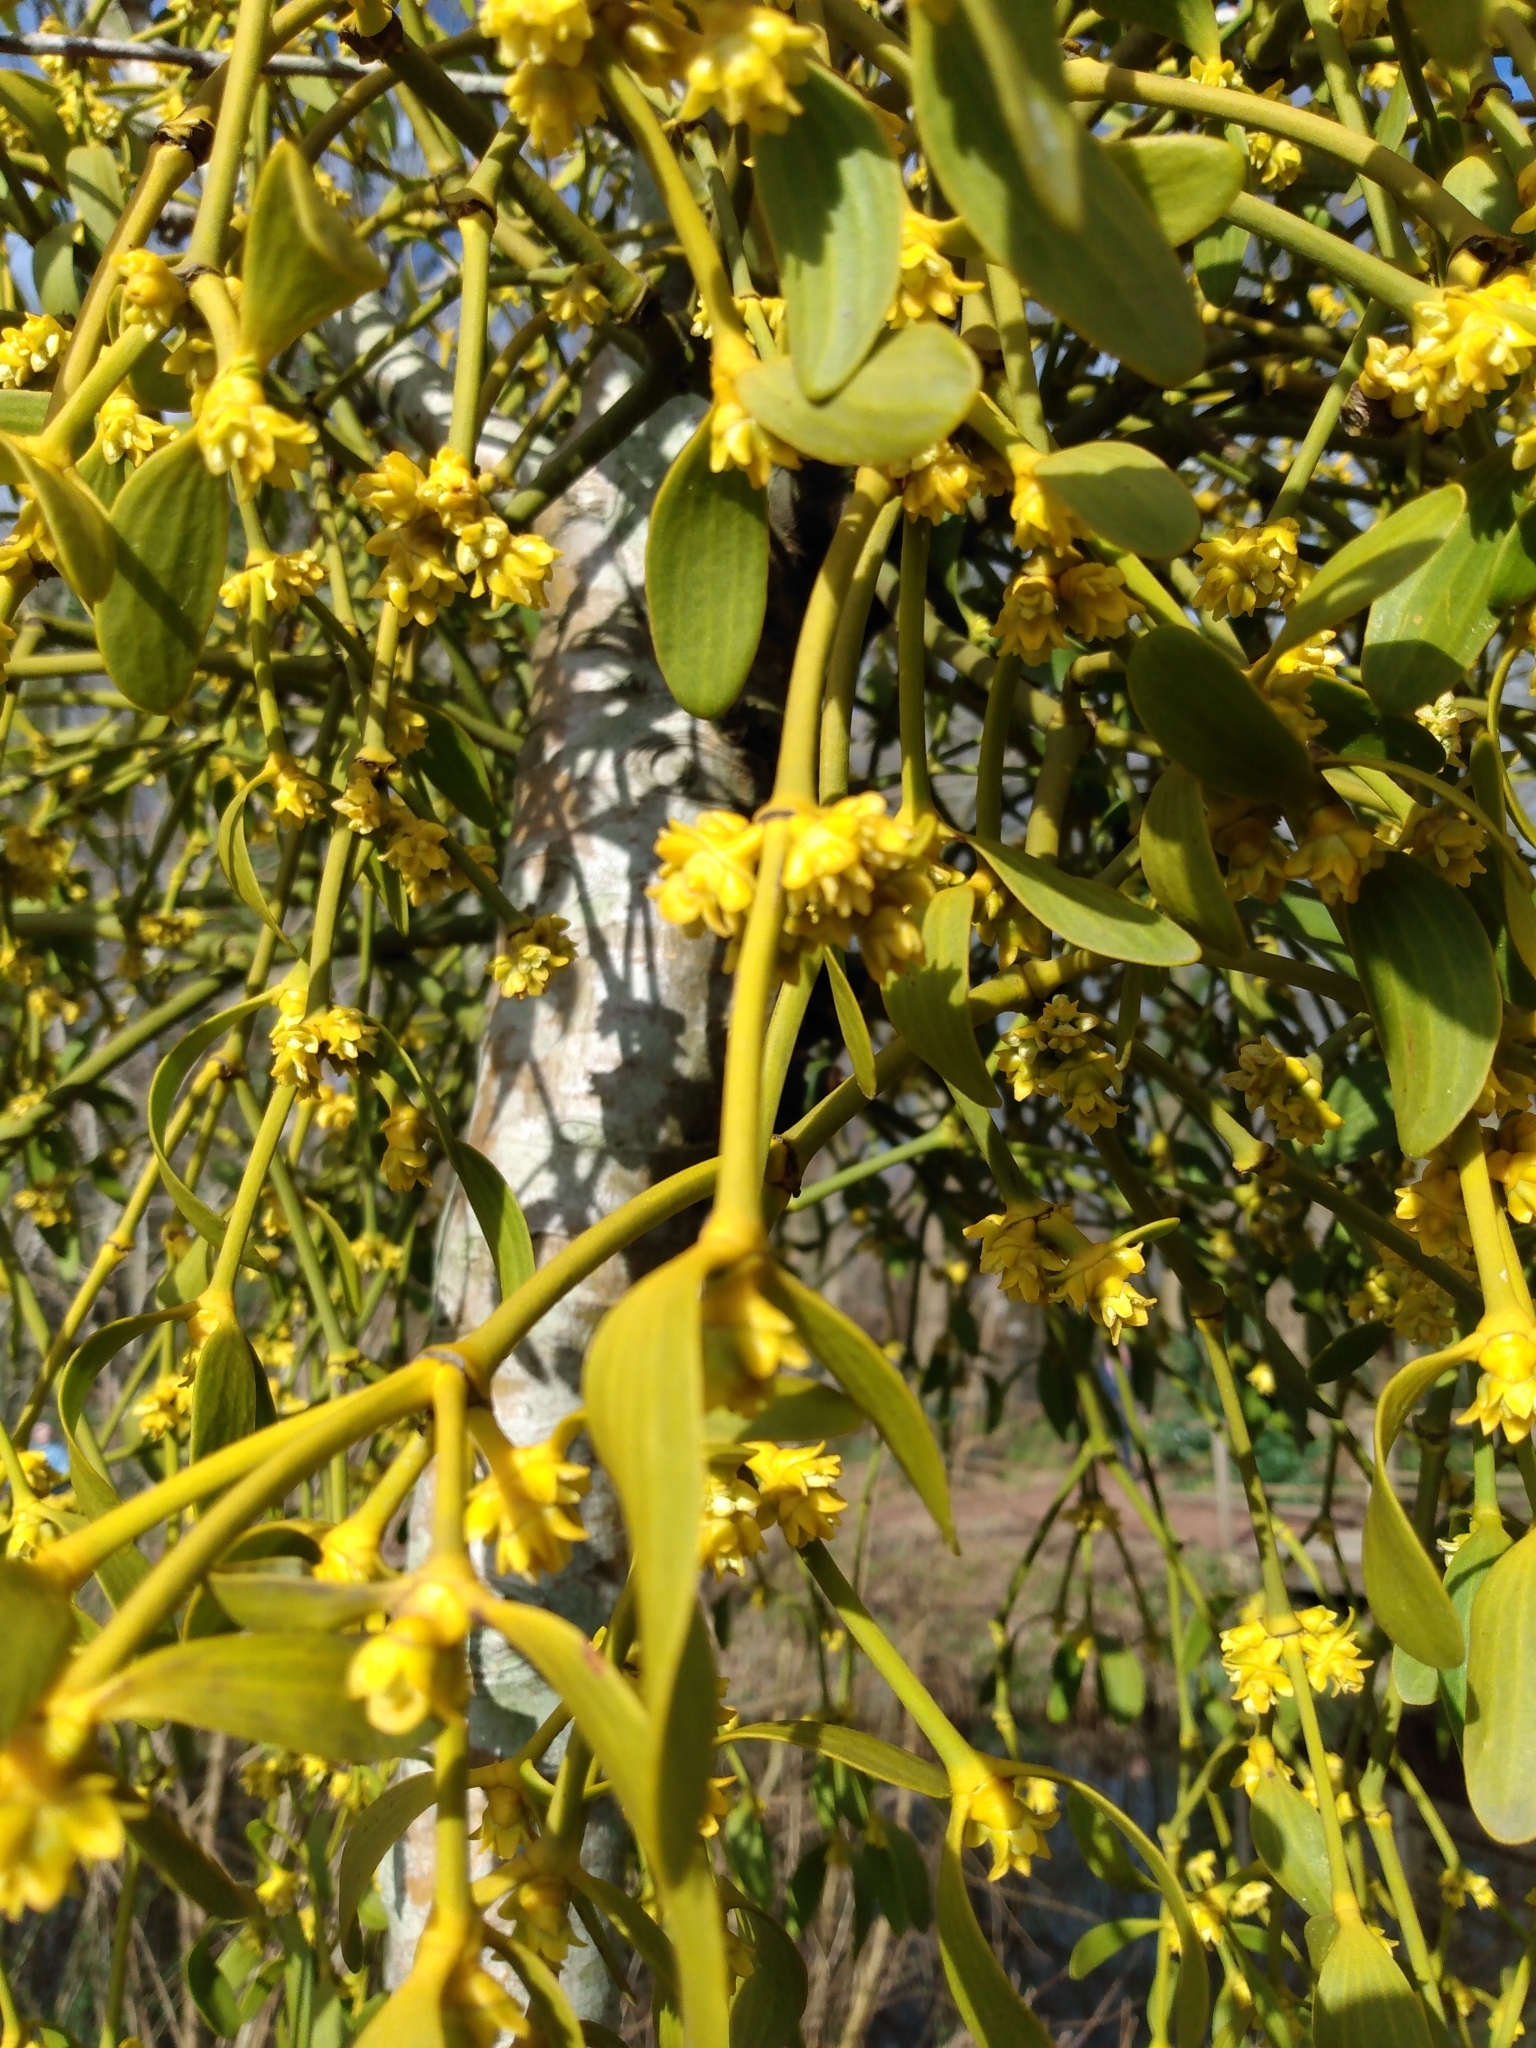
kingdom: Plantae
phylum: Tracheophyta
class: Magnoliopsida
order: Santalales
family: Viscaceae
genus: Viscum
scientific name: Viscum album
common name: Mistletoe
